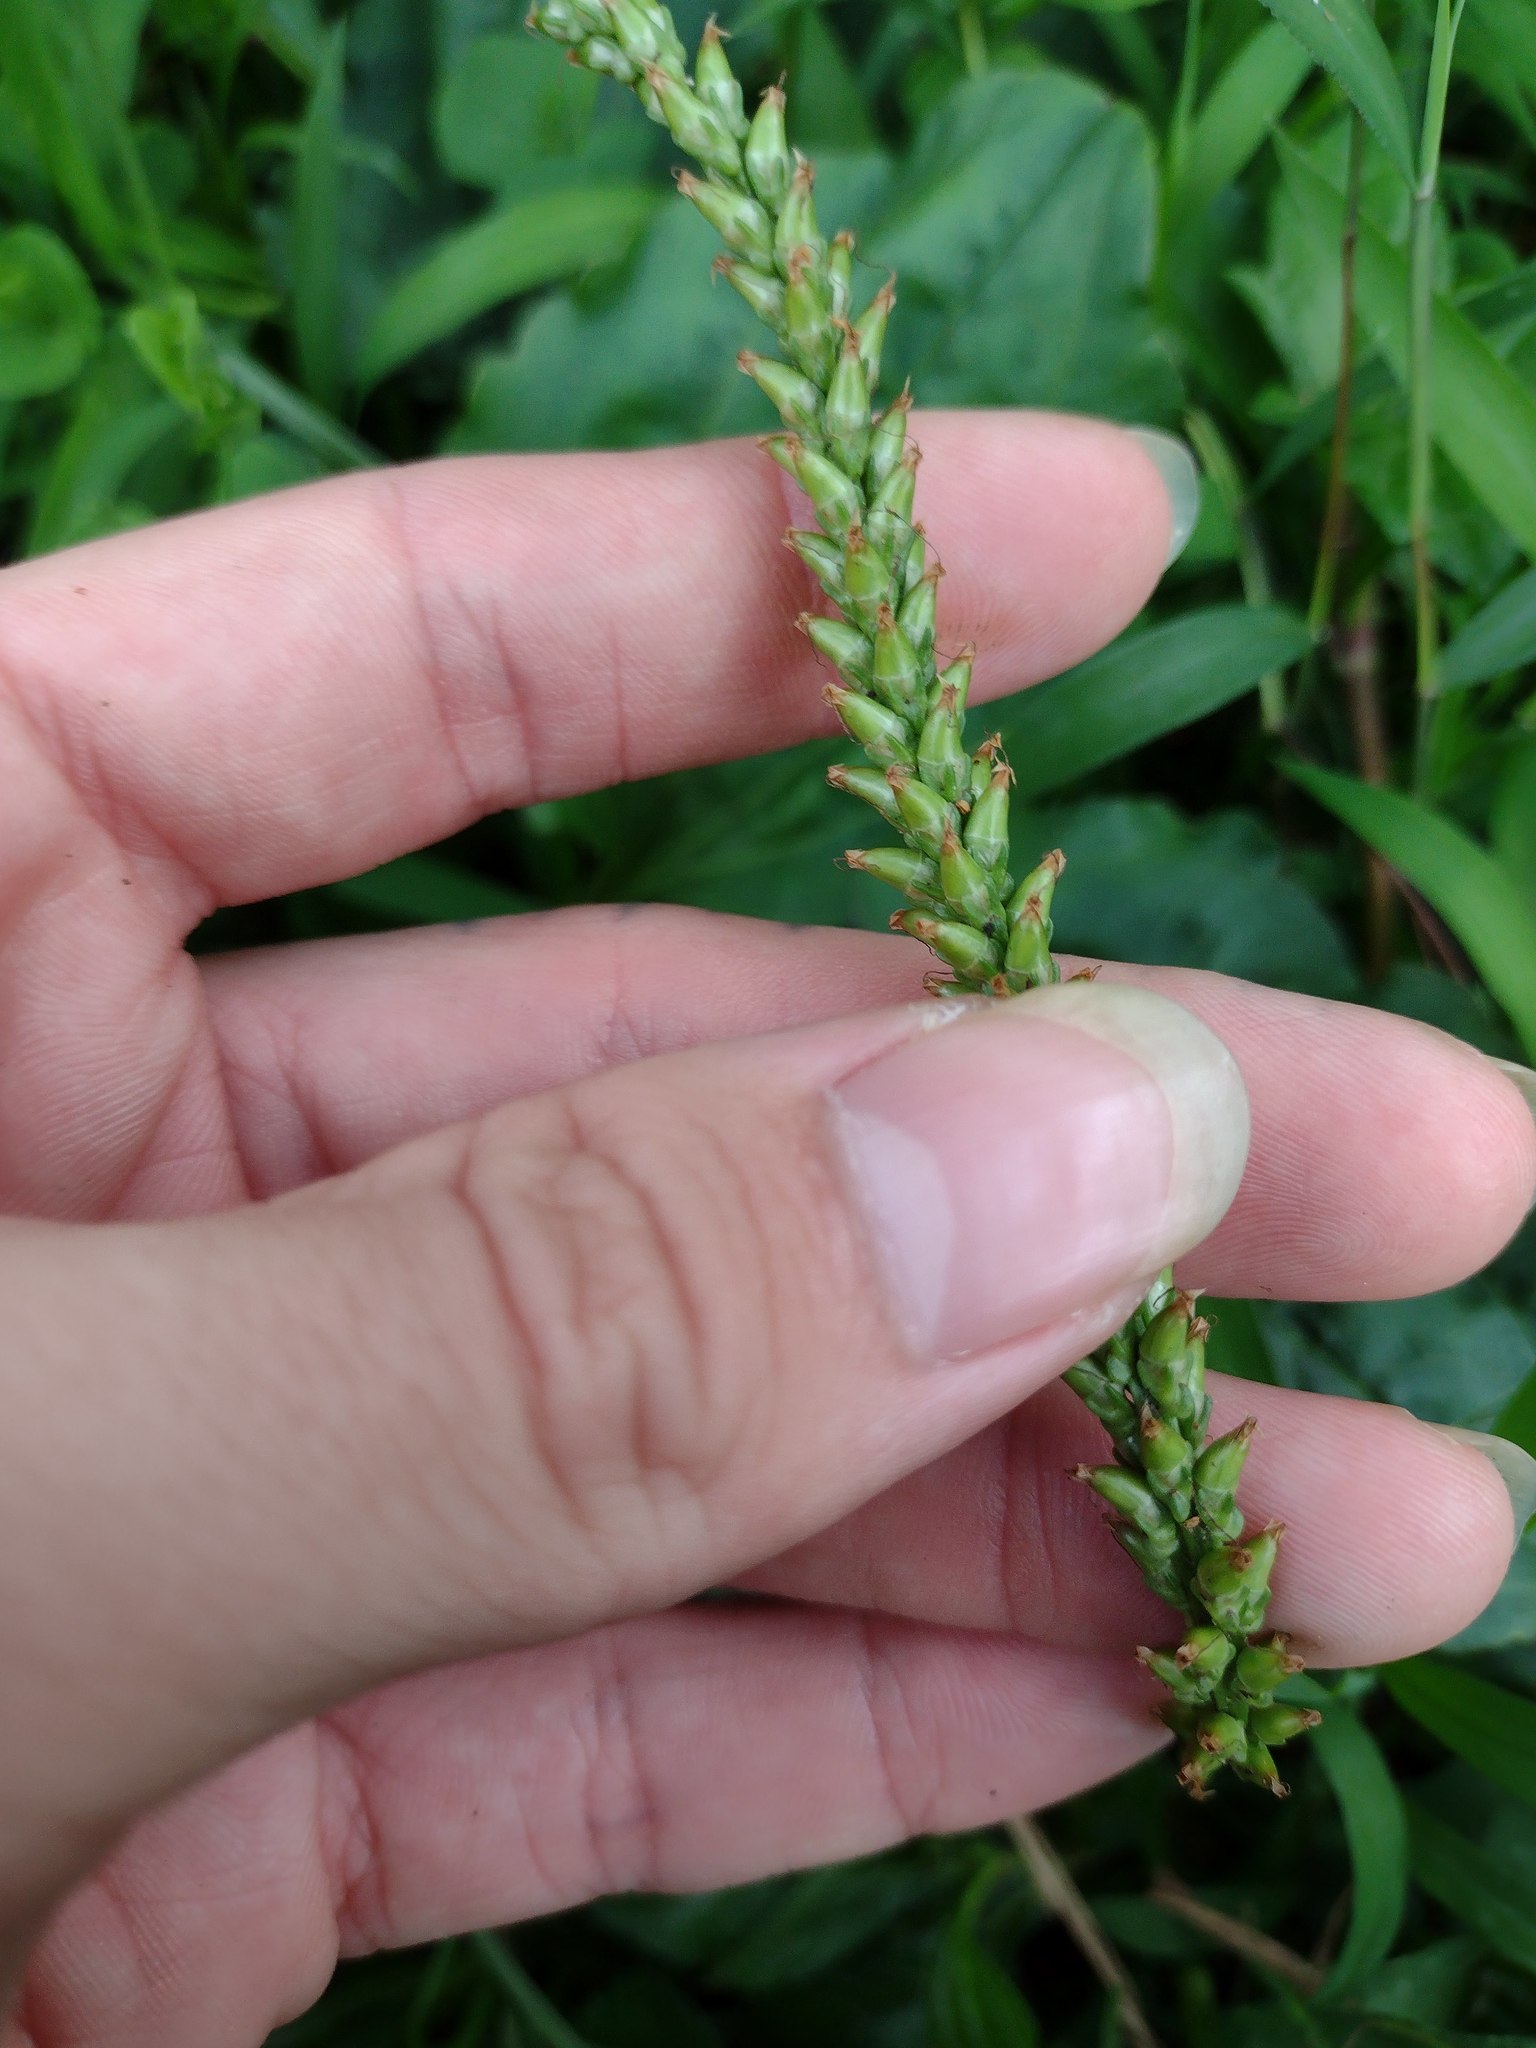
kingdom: Plantae
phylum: Tracheophyta
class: Magnoliopsida
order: Lamiales
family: Plantaginaceae
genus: Plantago
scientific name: Plantago major
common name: Common plantain
